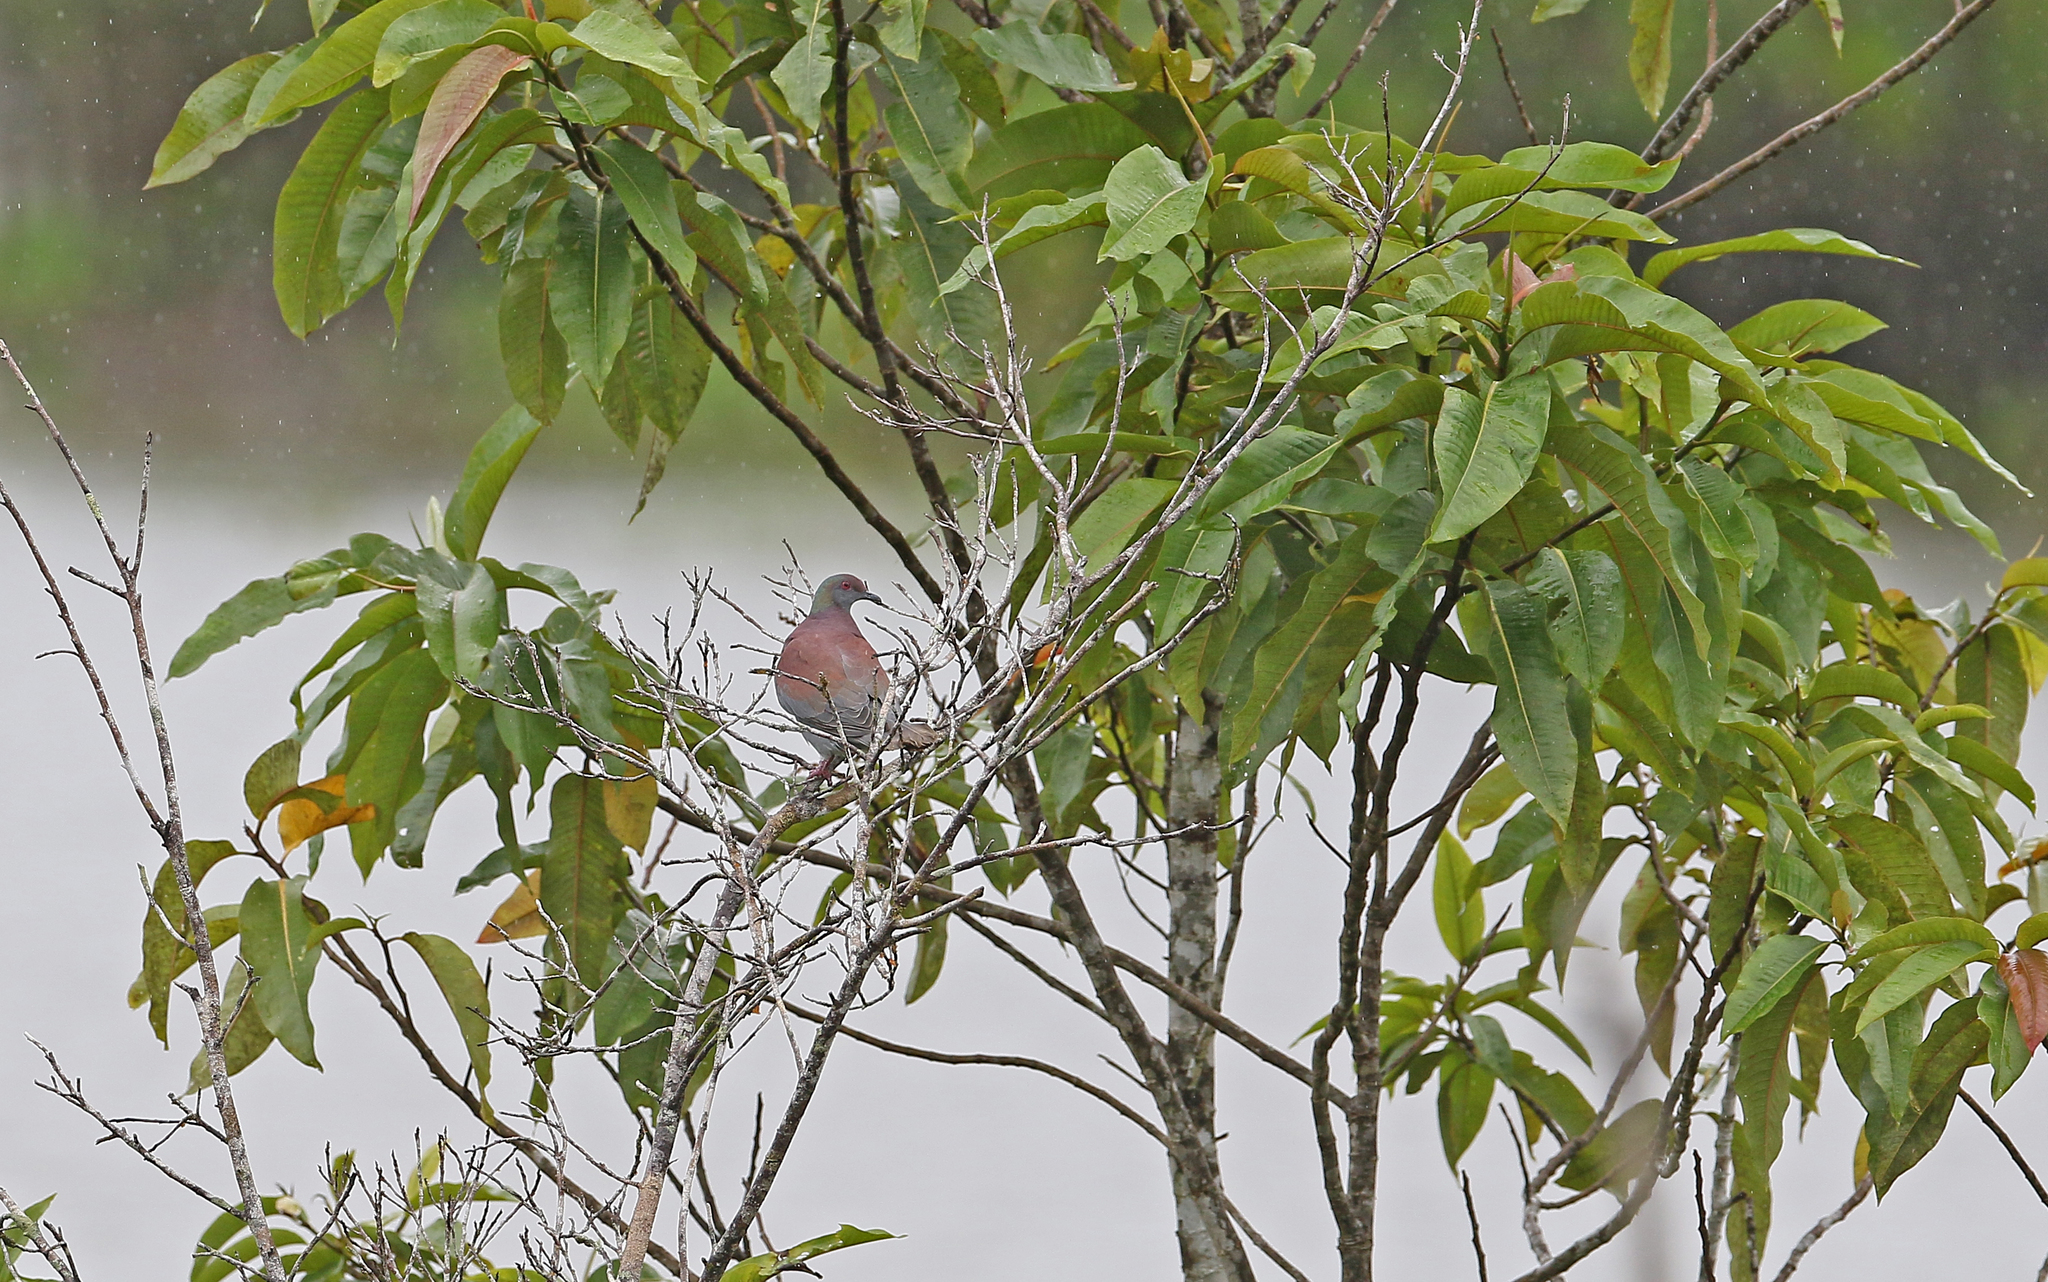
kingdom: Animalia
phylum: Chordata
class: Aves
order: Columbiformes
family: Columbidae
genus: Patagioenas
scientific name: Patagioenas cayennensis
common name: Pale-vented pigeon
